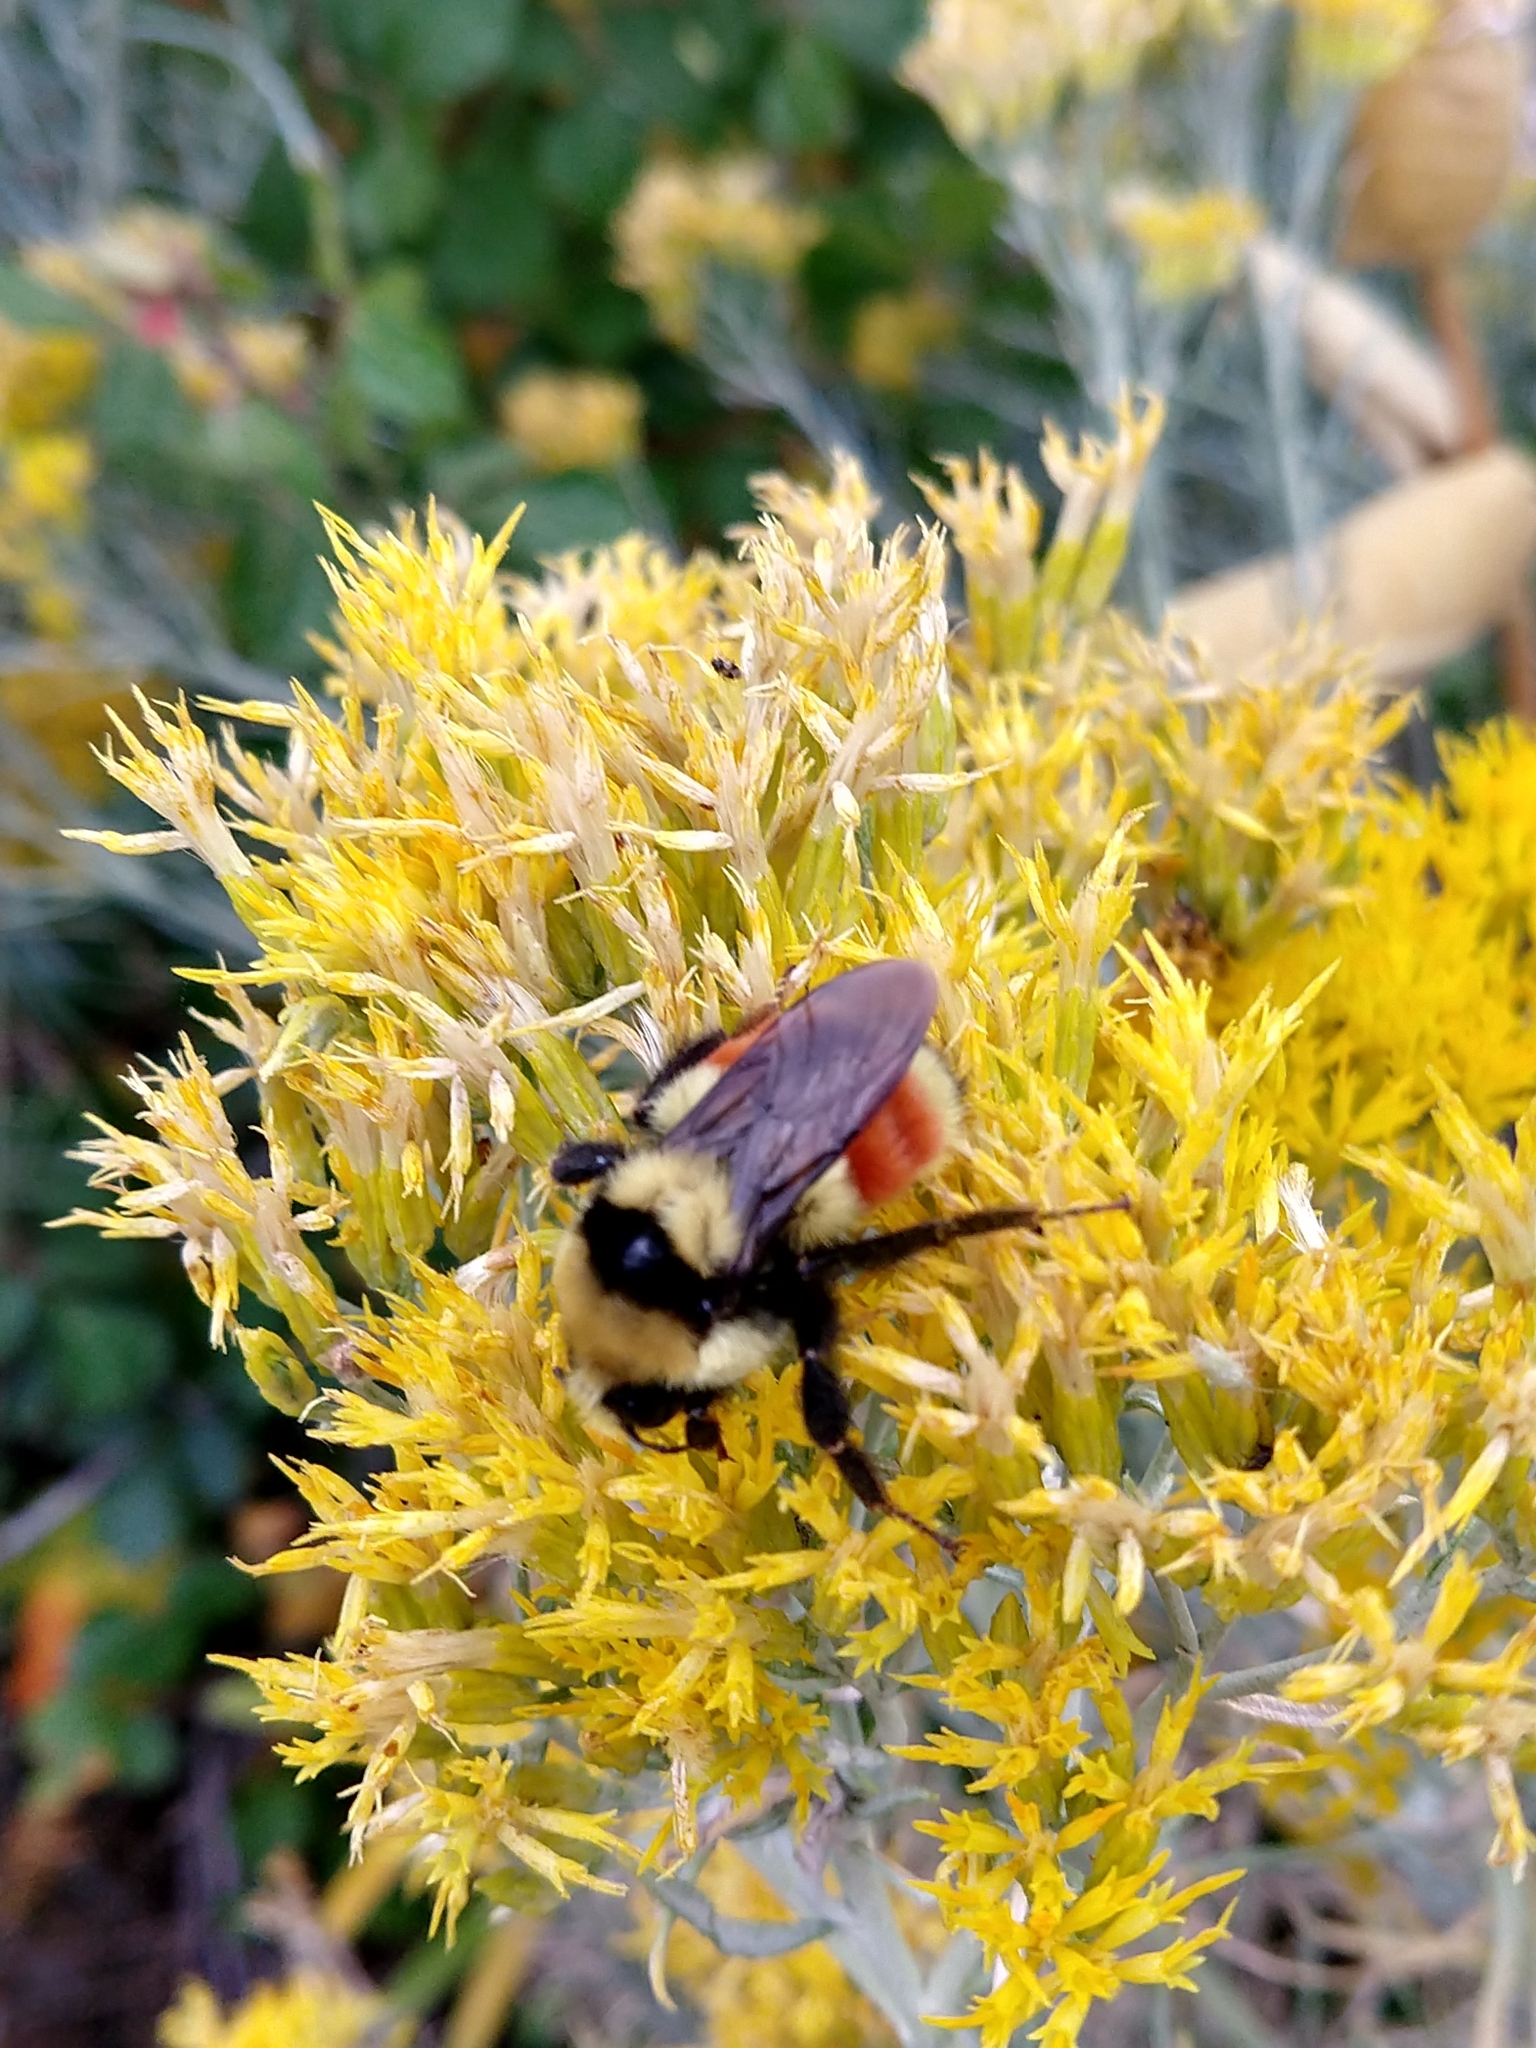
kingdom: Animalia
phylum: Arthropoda
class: Insecta
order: Hymenoptera
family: Apidae
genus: Bombus
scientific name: Bombus huntii
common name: Hunt bumble bee
